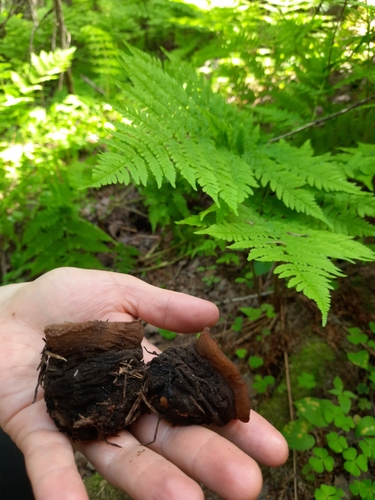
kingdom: Fungi
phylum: Ascomycota
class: Pezizomycetes
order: Pezizales
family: Sarcosomataceae
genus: Sarcosoma
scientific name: Sarcosoma globosum
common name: Charred-pancake cup
